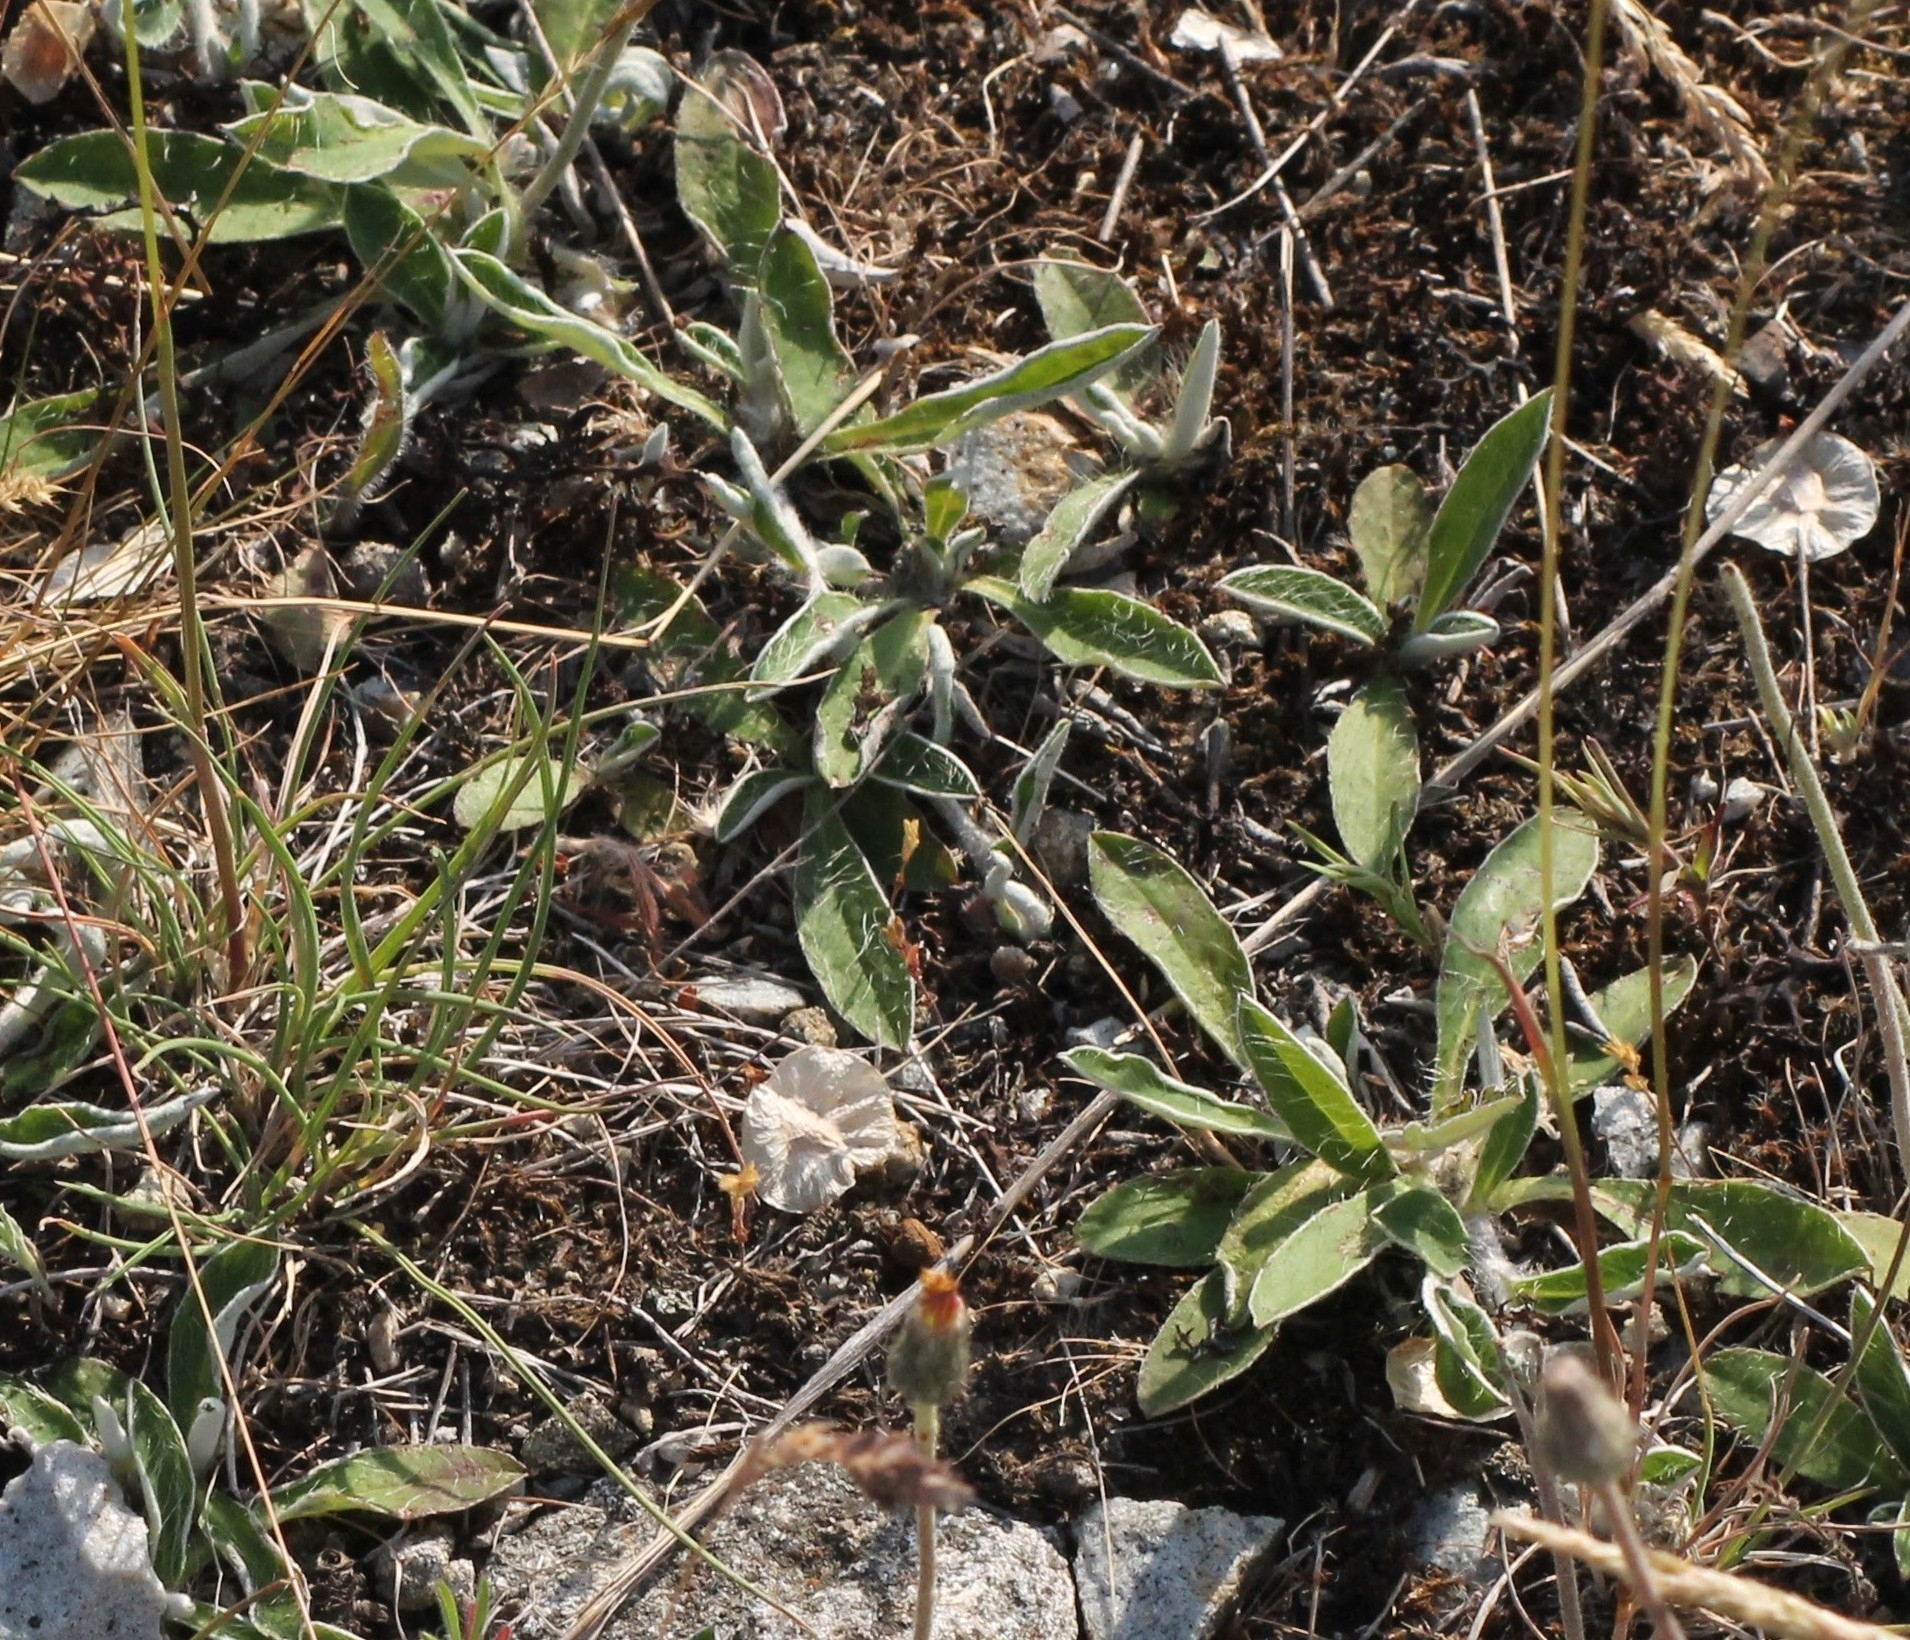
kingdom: Plantae
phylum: Tracheophyta
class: Magnoliopsida
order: Asterales
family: Asteraceae
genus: Pilosella
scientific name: Pilosella officinarum
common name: Mouse-ear hawkweed
